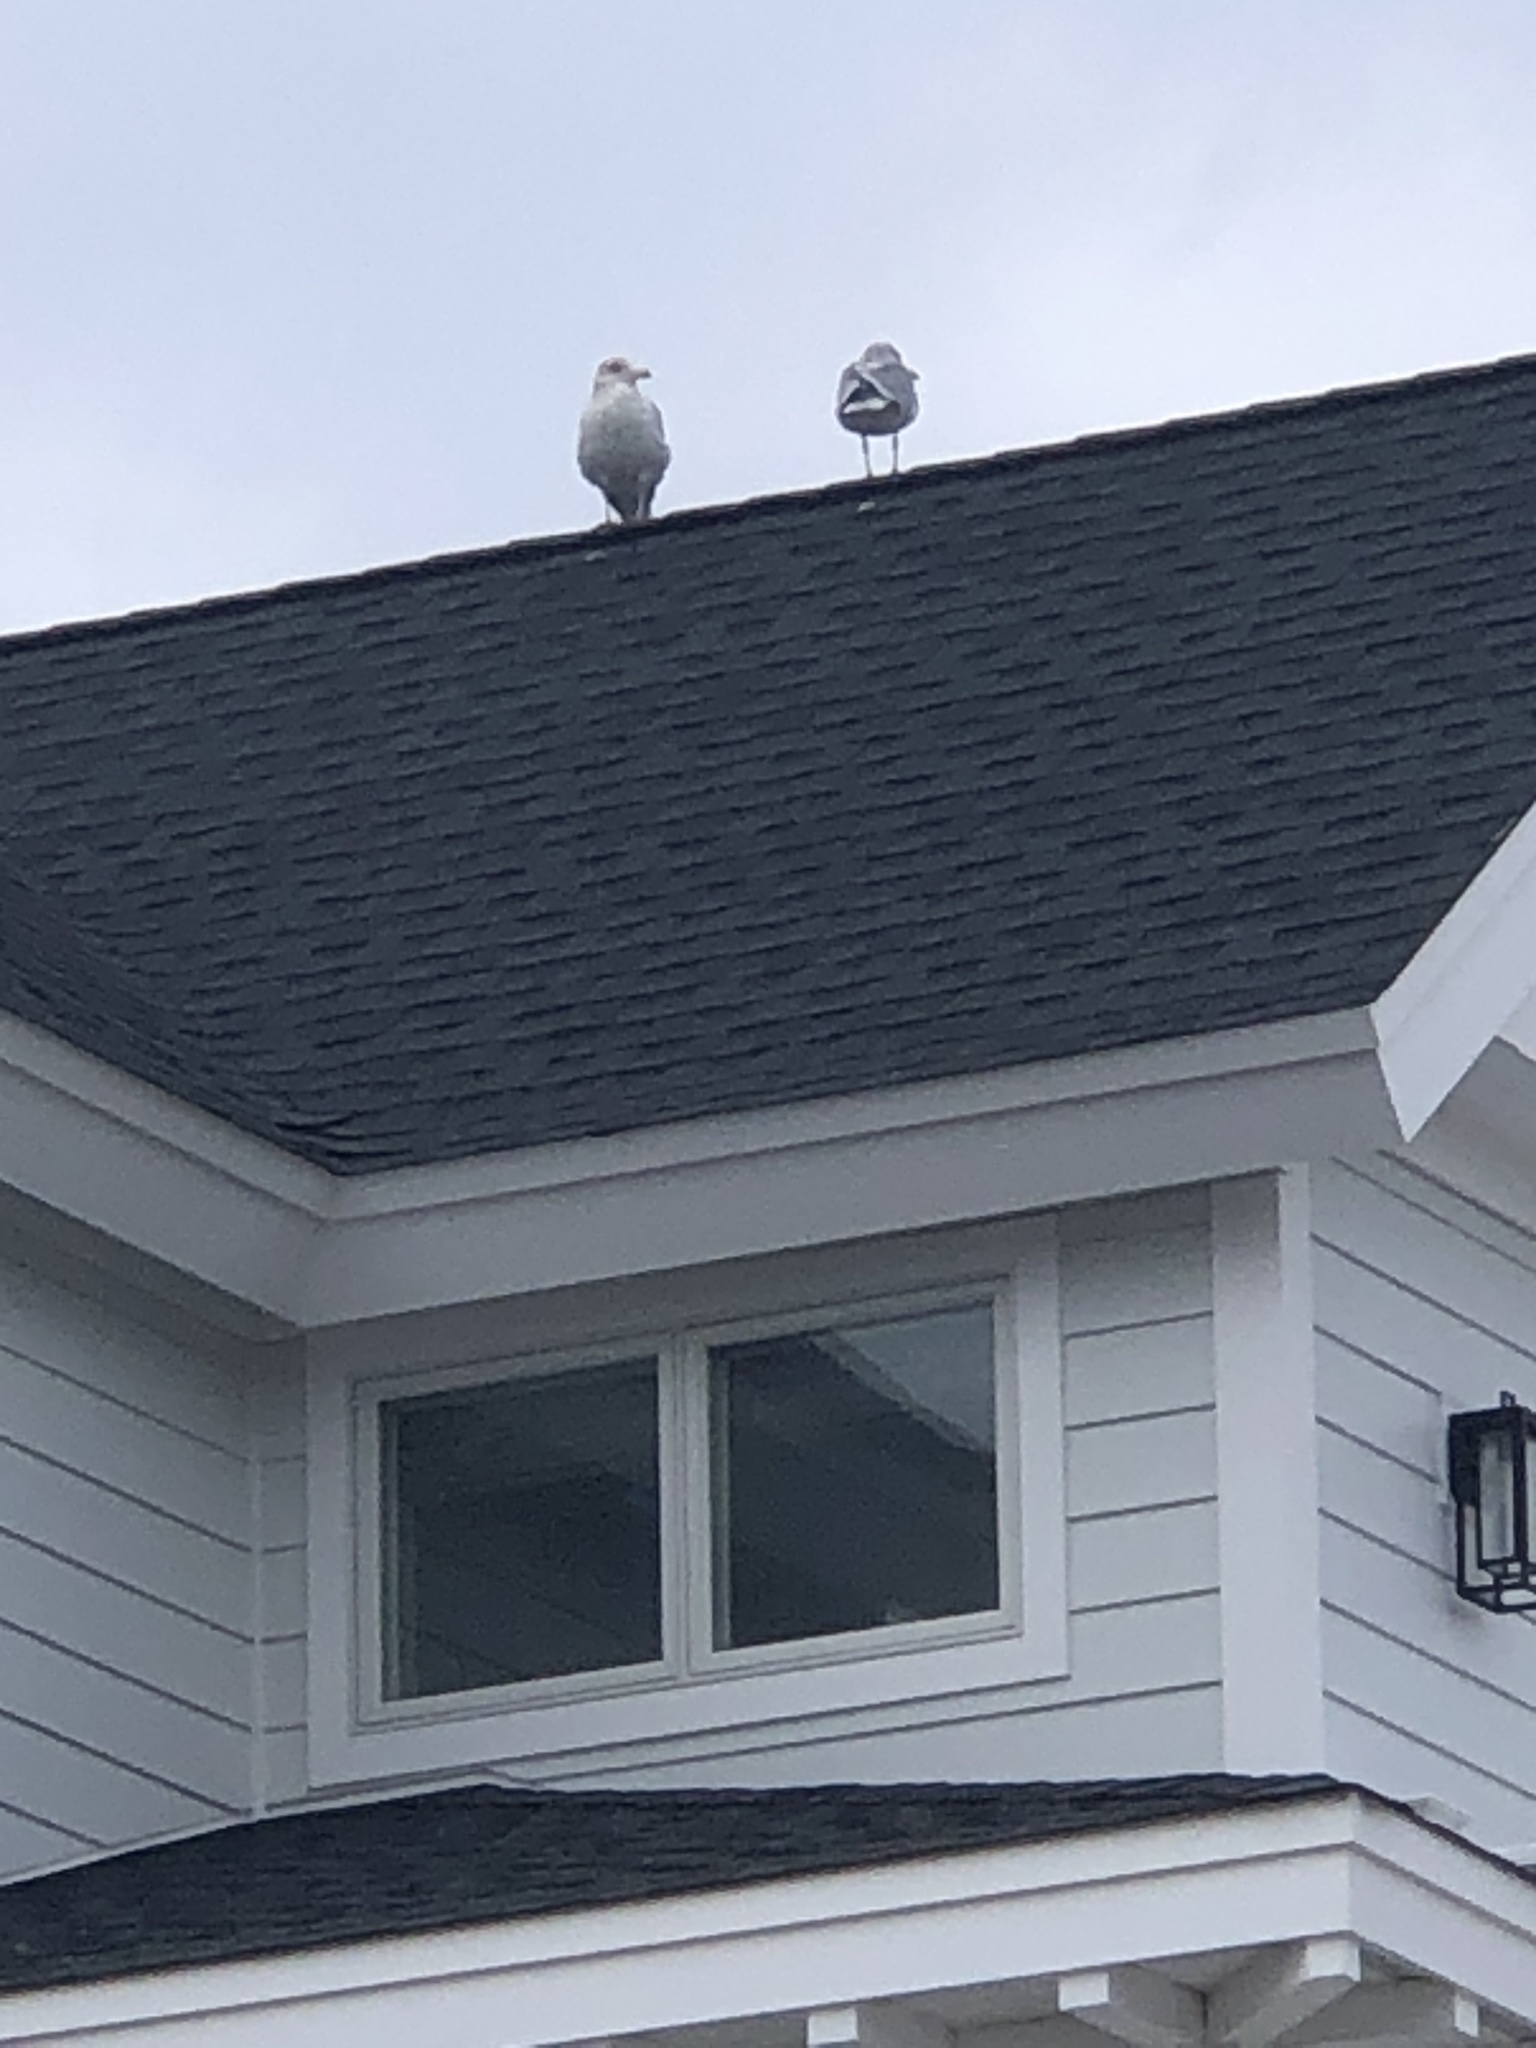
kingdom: Animalia
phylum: Chordata
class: Aves
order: Charadriiformes
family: Laridae
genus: Larus
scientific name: Larus argentatus
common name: Herring gull
